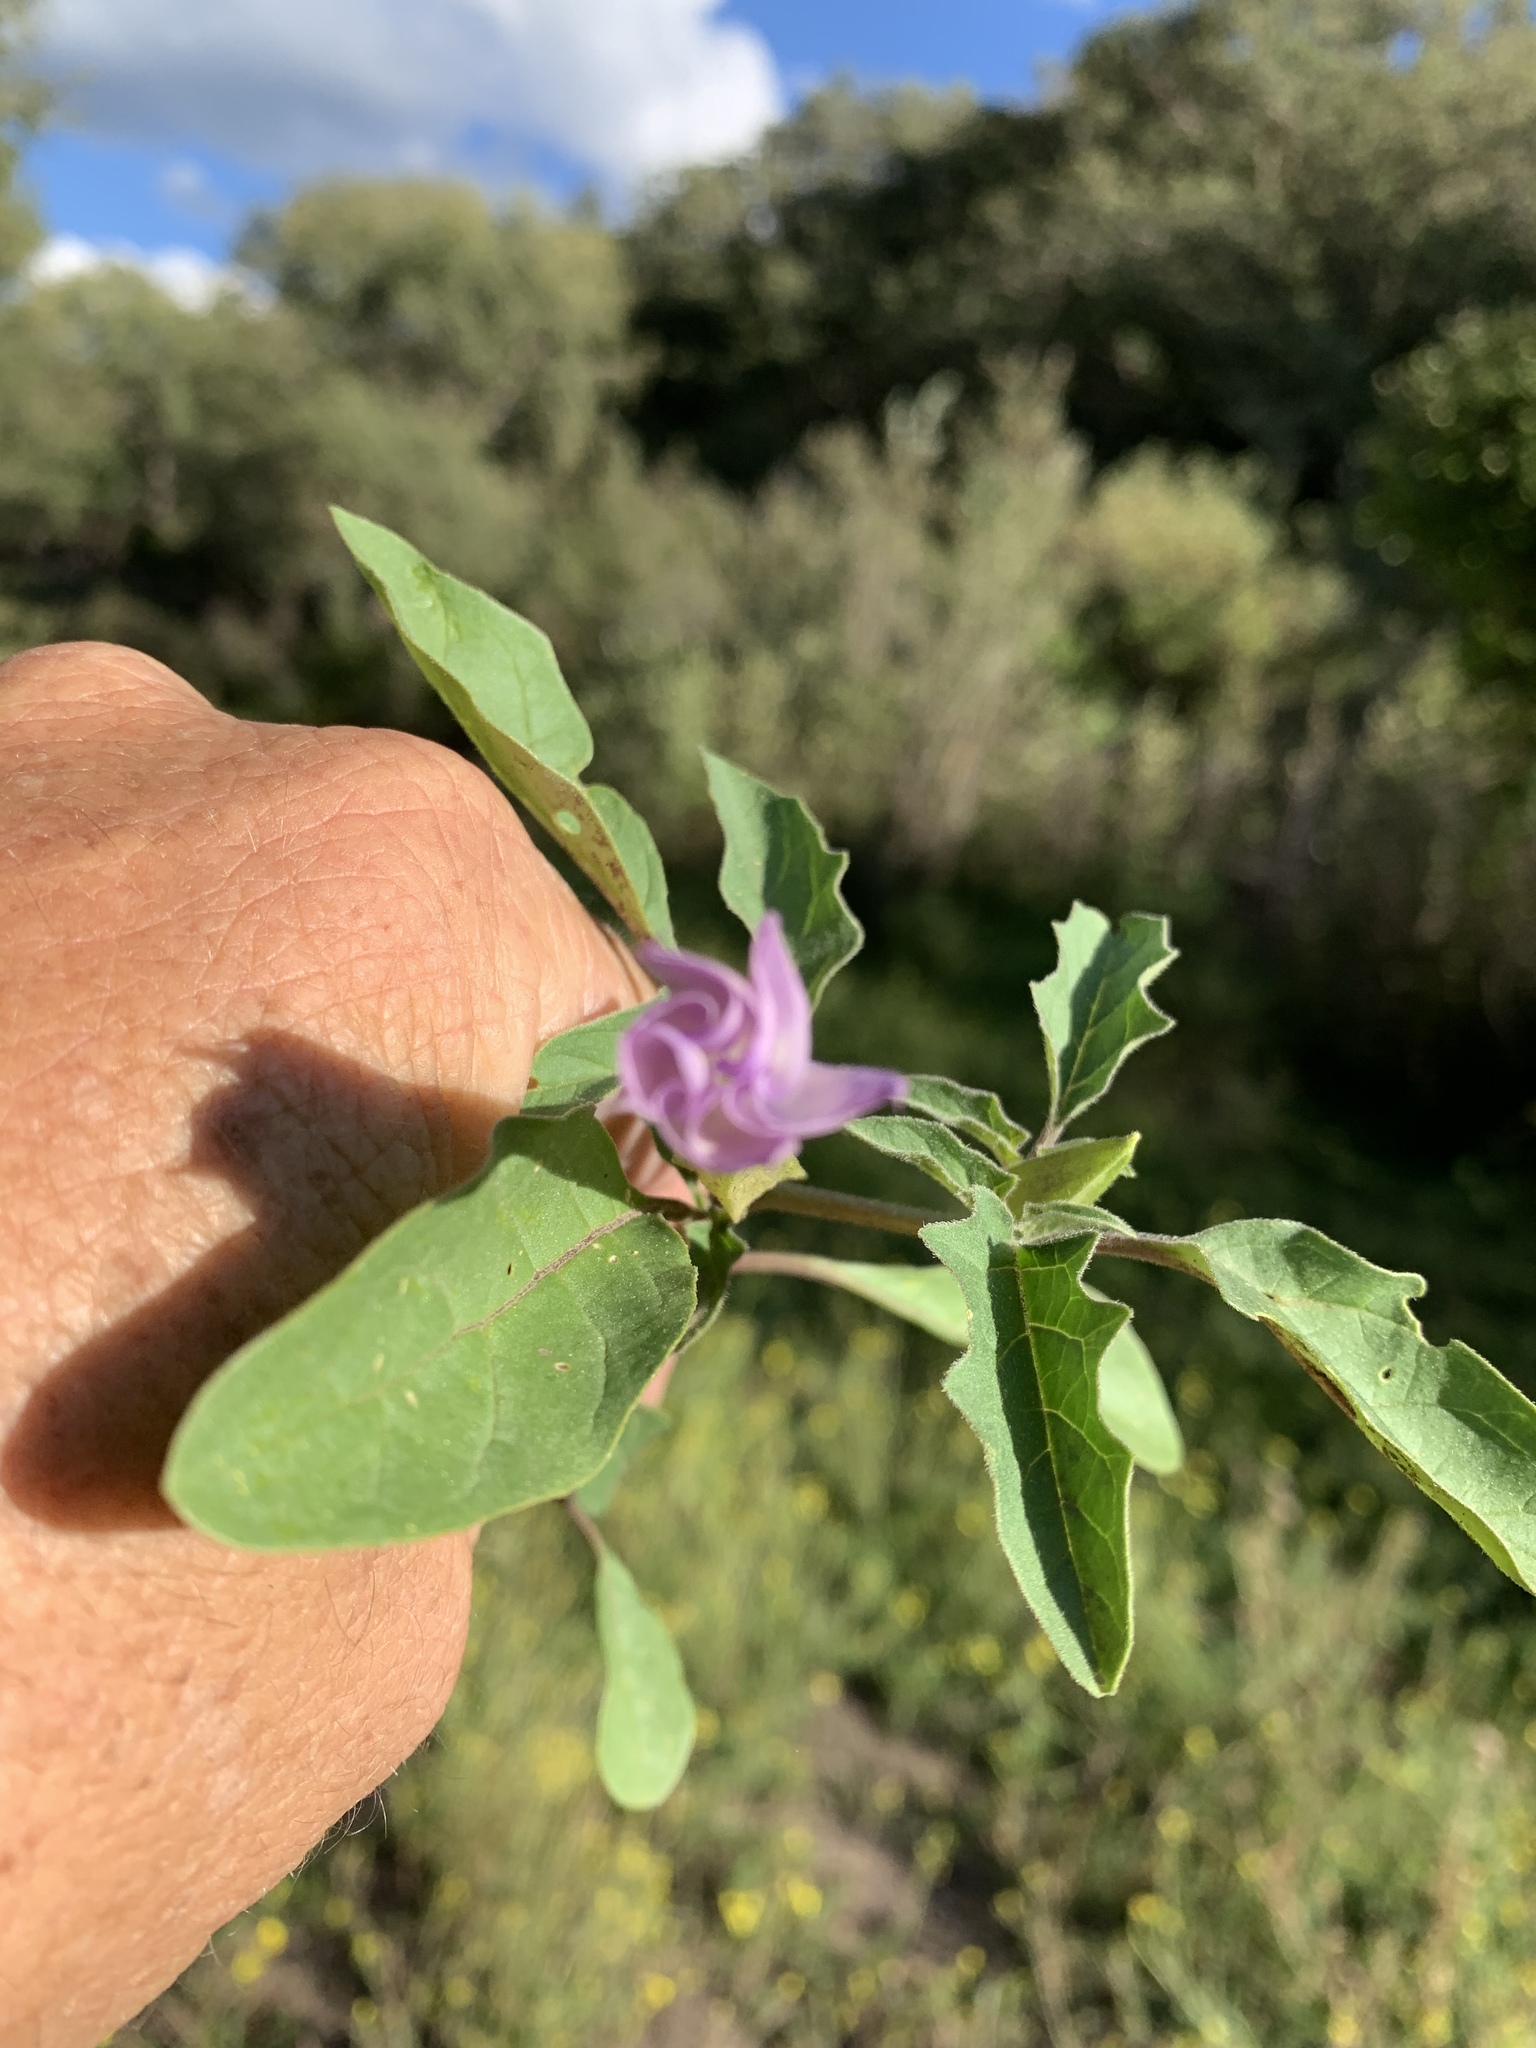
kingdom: Plantae
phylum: Tracheophyta
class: Magnoliopsida
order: Solanales
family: Solanaceae
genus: Datura
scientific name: Datura quercifolia
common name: Oak-leaf datura
